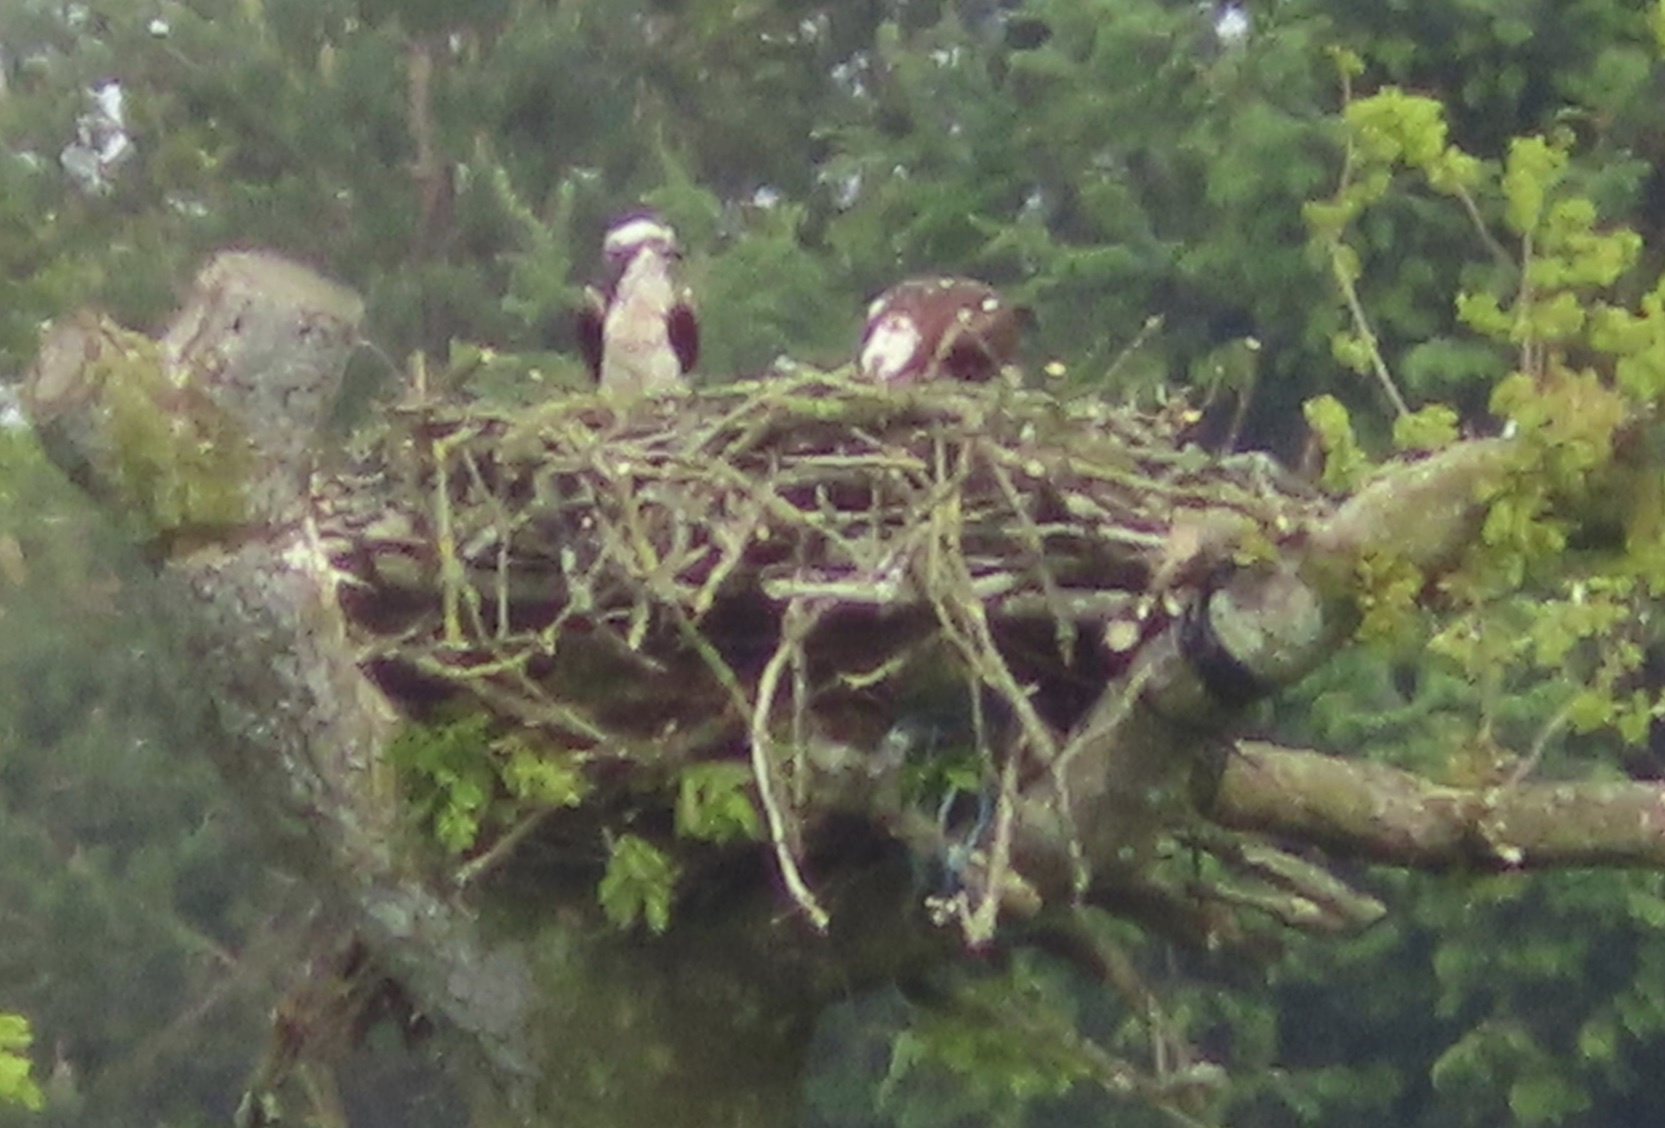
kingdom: Animalia
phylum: Chordata
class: Aves
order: Accipitriformes
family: Pandionidae
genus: Pandion
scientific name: Pandion haliaetus
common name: Osprey
